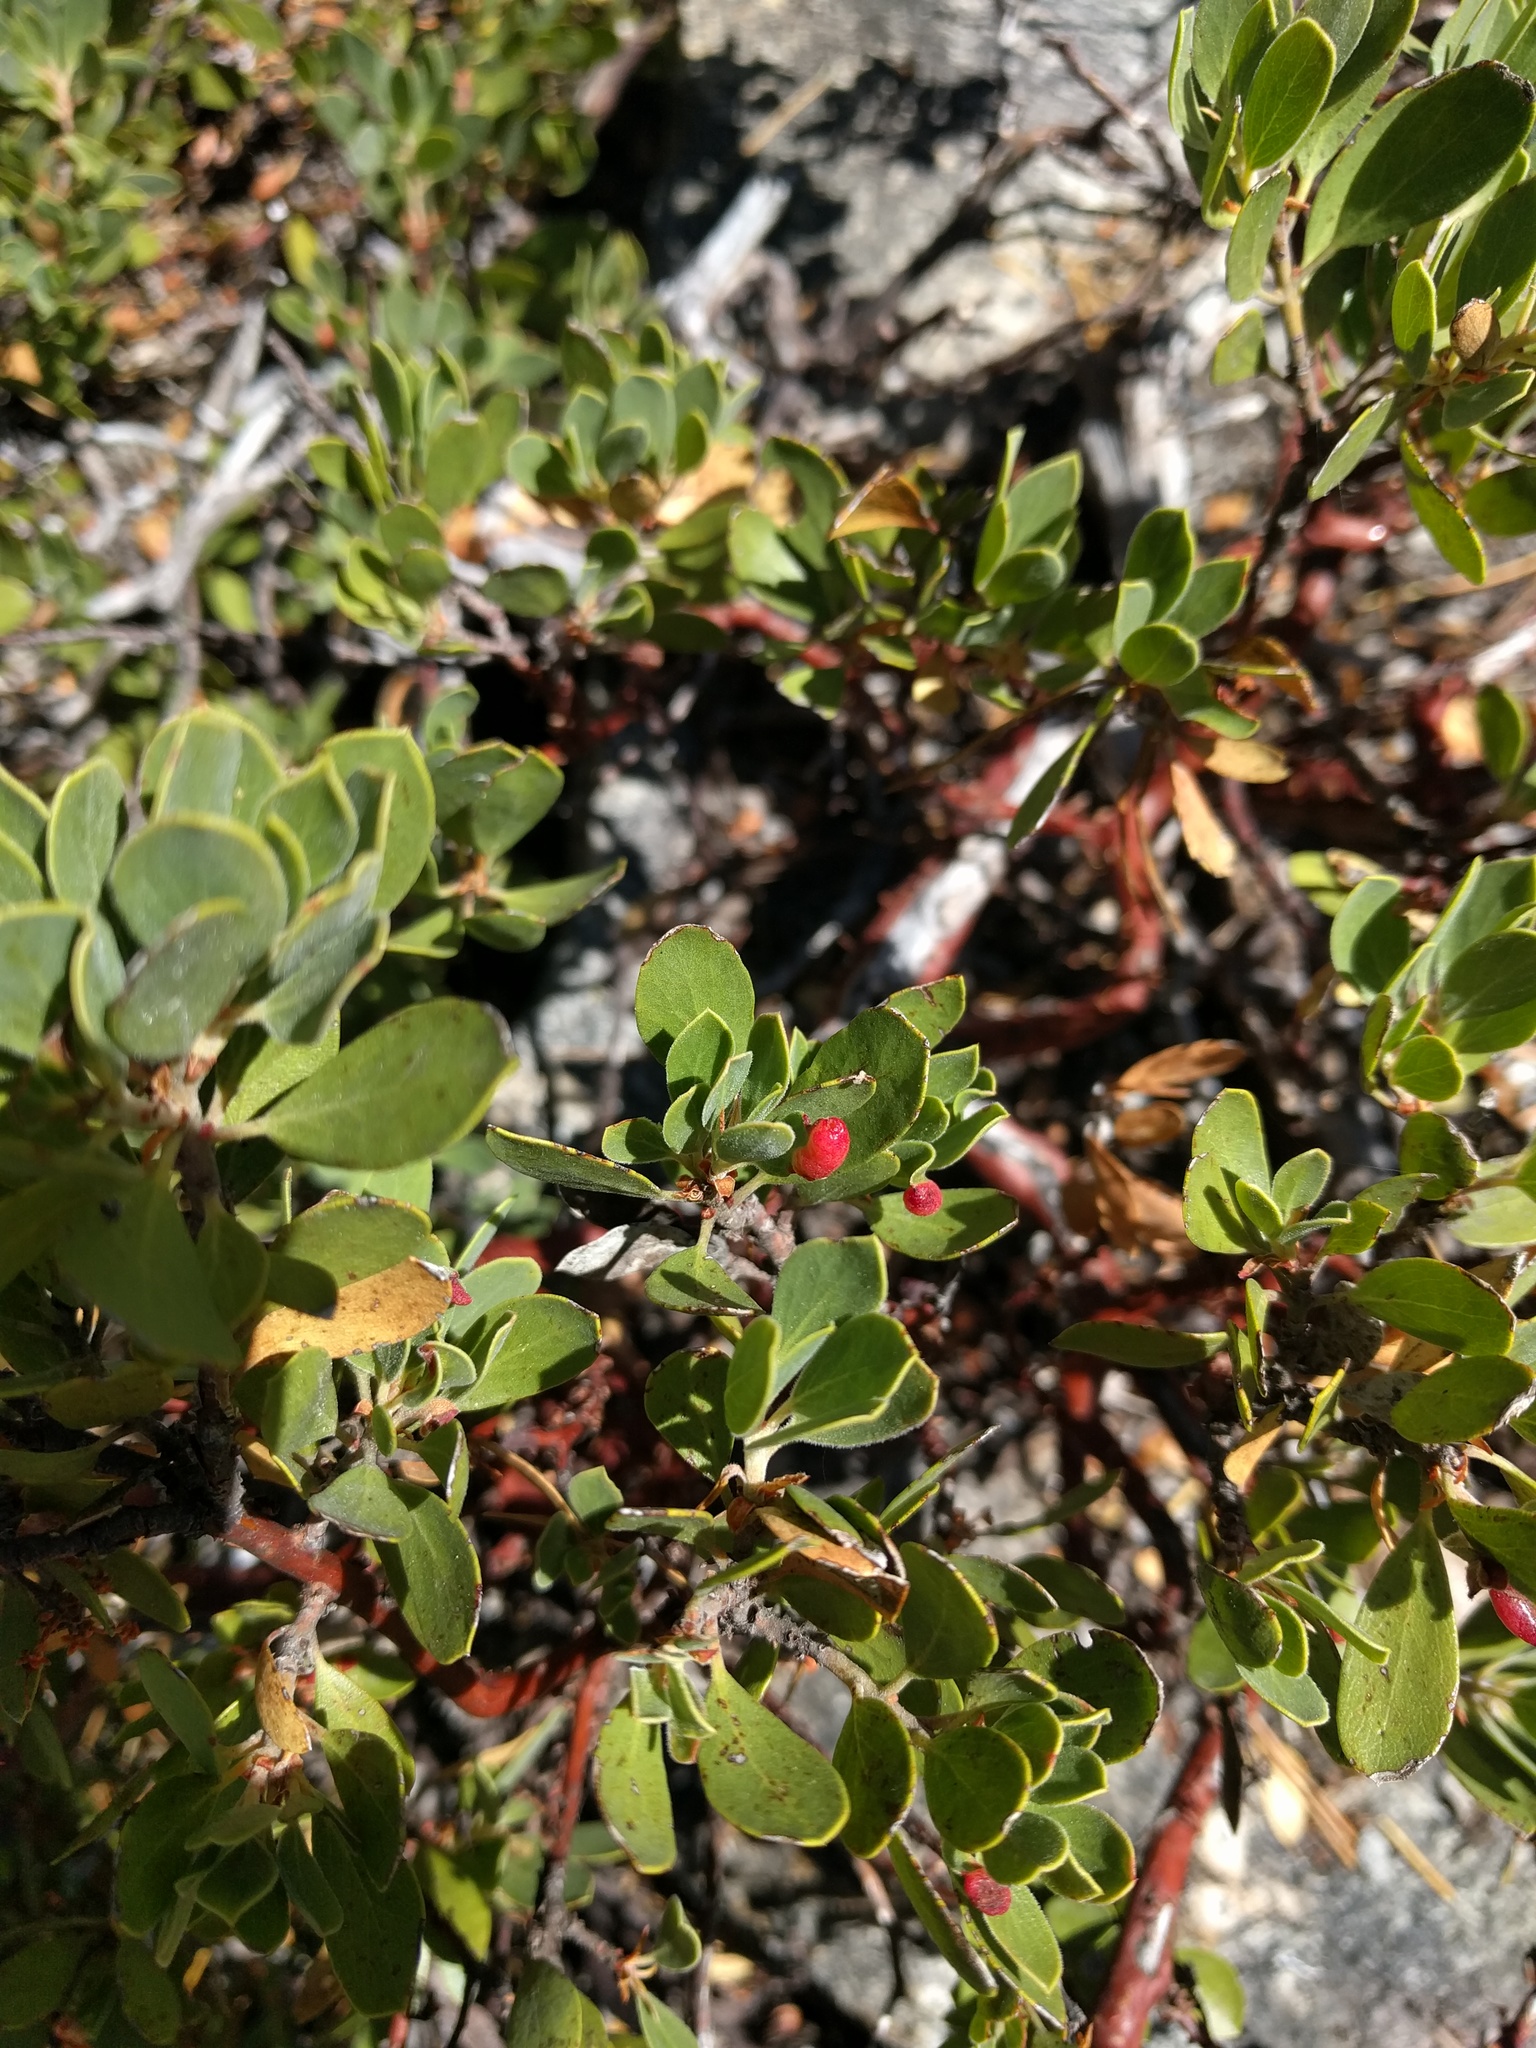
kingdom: Animalia
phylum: Arthropoda
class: Insecta
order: Hemiptera
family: Aphididae
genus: Tamalia
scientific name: Tamalia coweni
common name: Manzanita leafgall aphid
